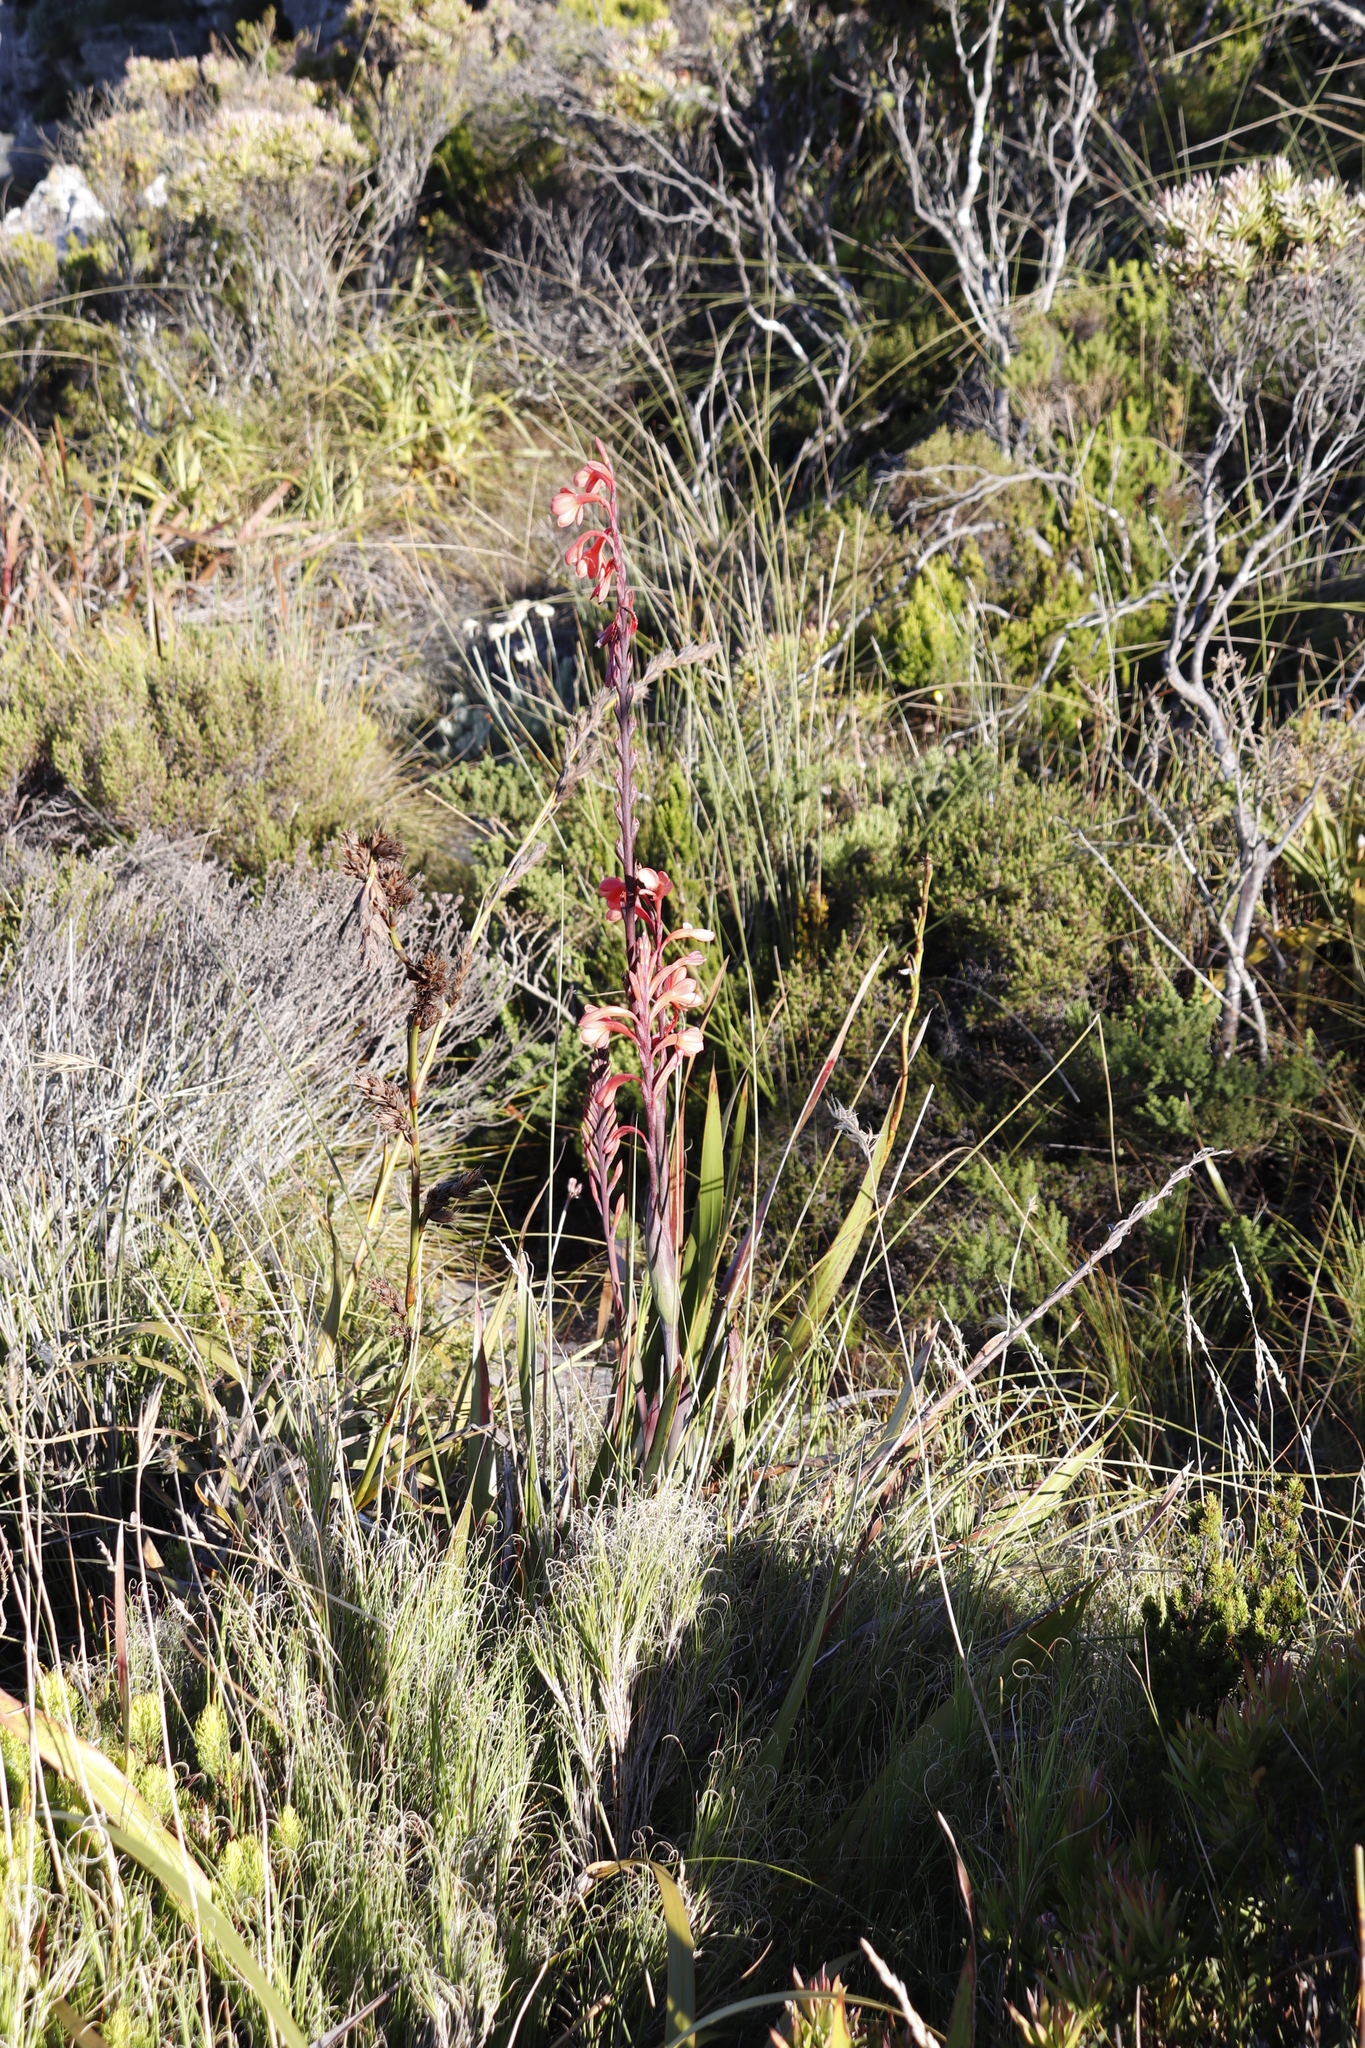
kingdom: Plantae
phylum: Tracheophyta
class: Liliopsida
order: Asparagales
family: Iridaceae
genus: Watsonia
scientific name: Watsonia tabularis
